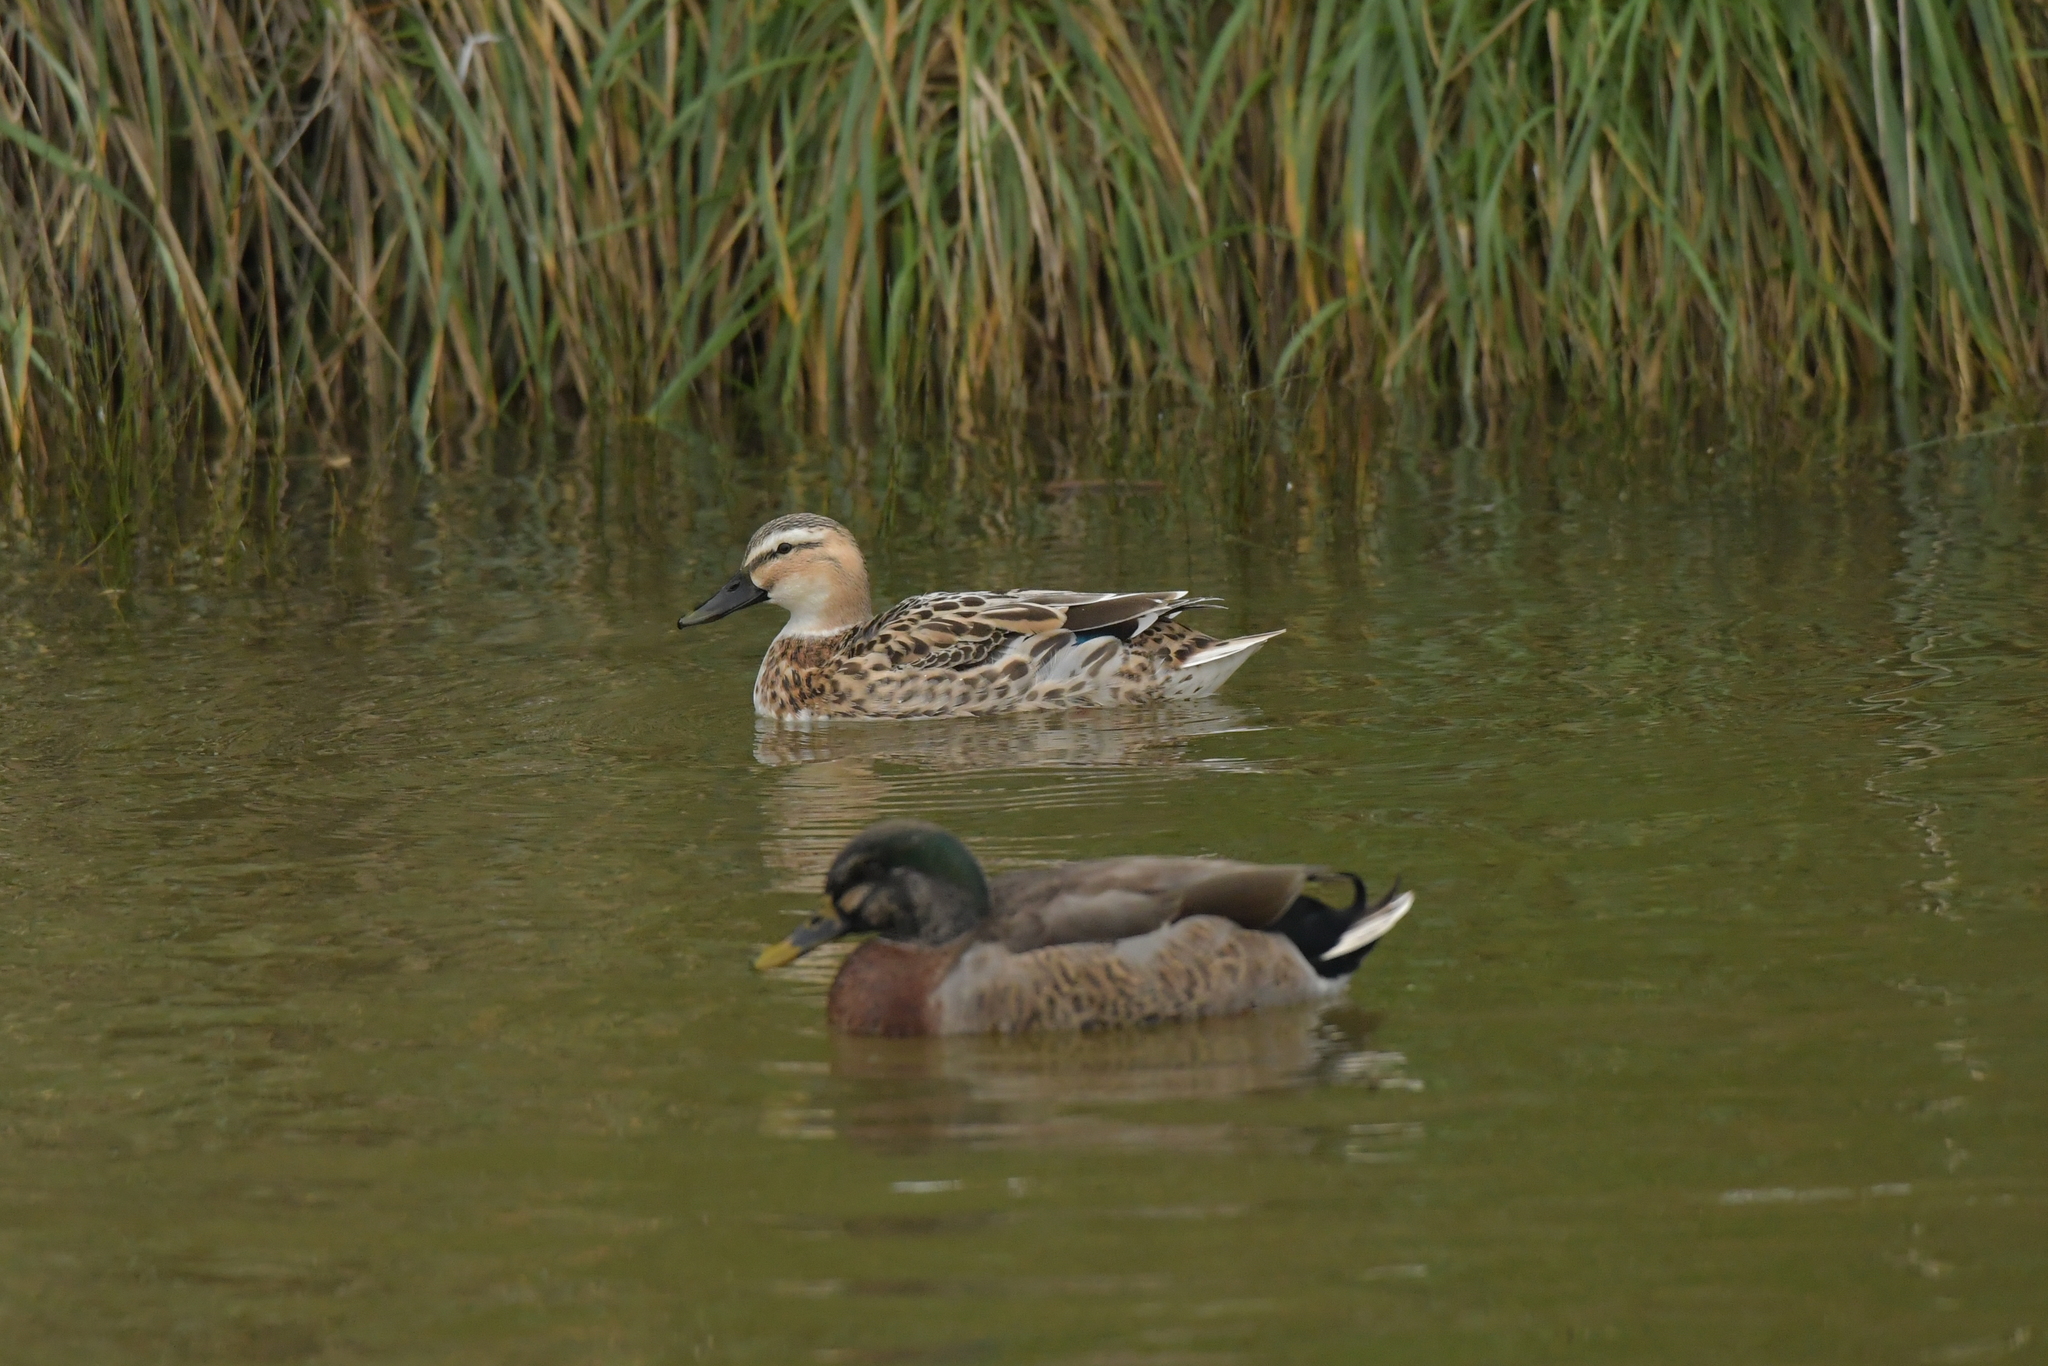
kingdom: Animalia
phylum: Chordata
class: Aves
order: Anseriformes
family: Anatidae
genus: Anas
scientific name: Anas
